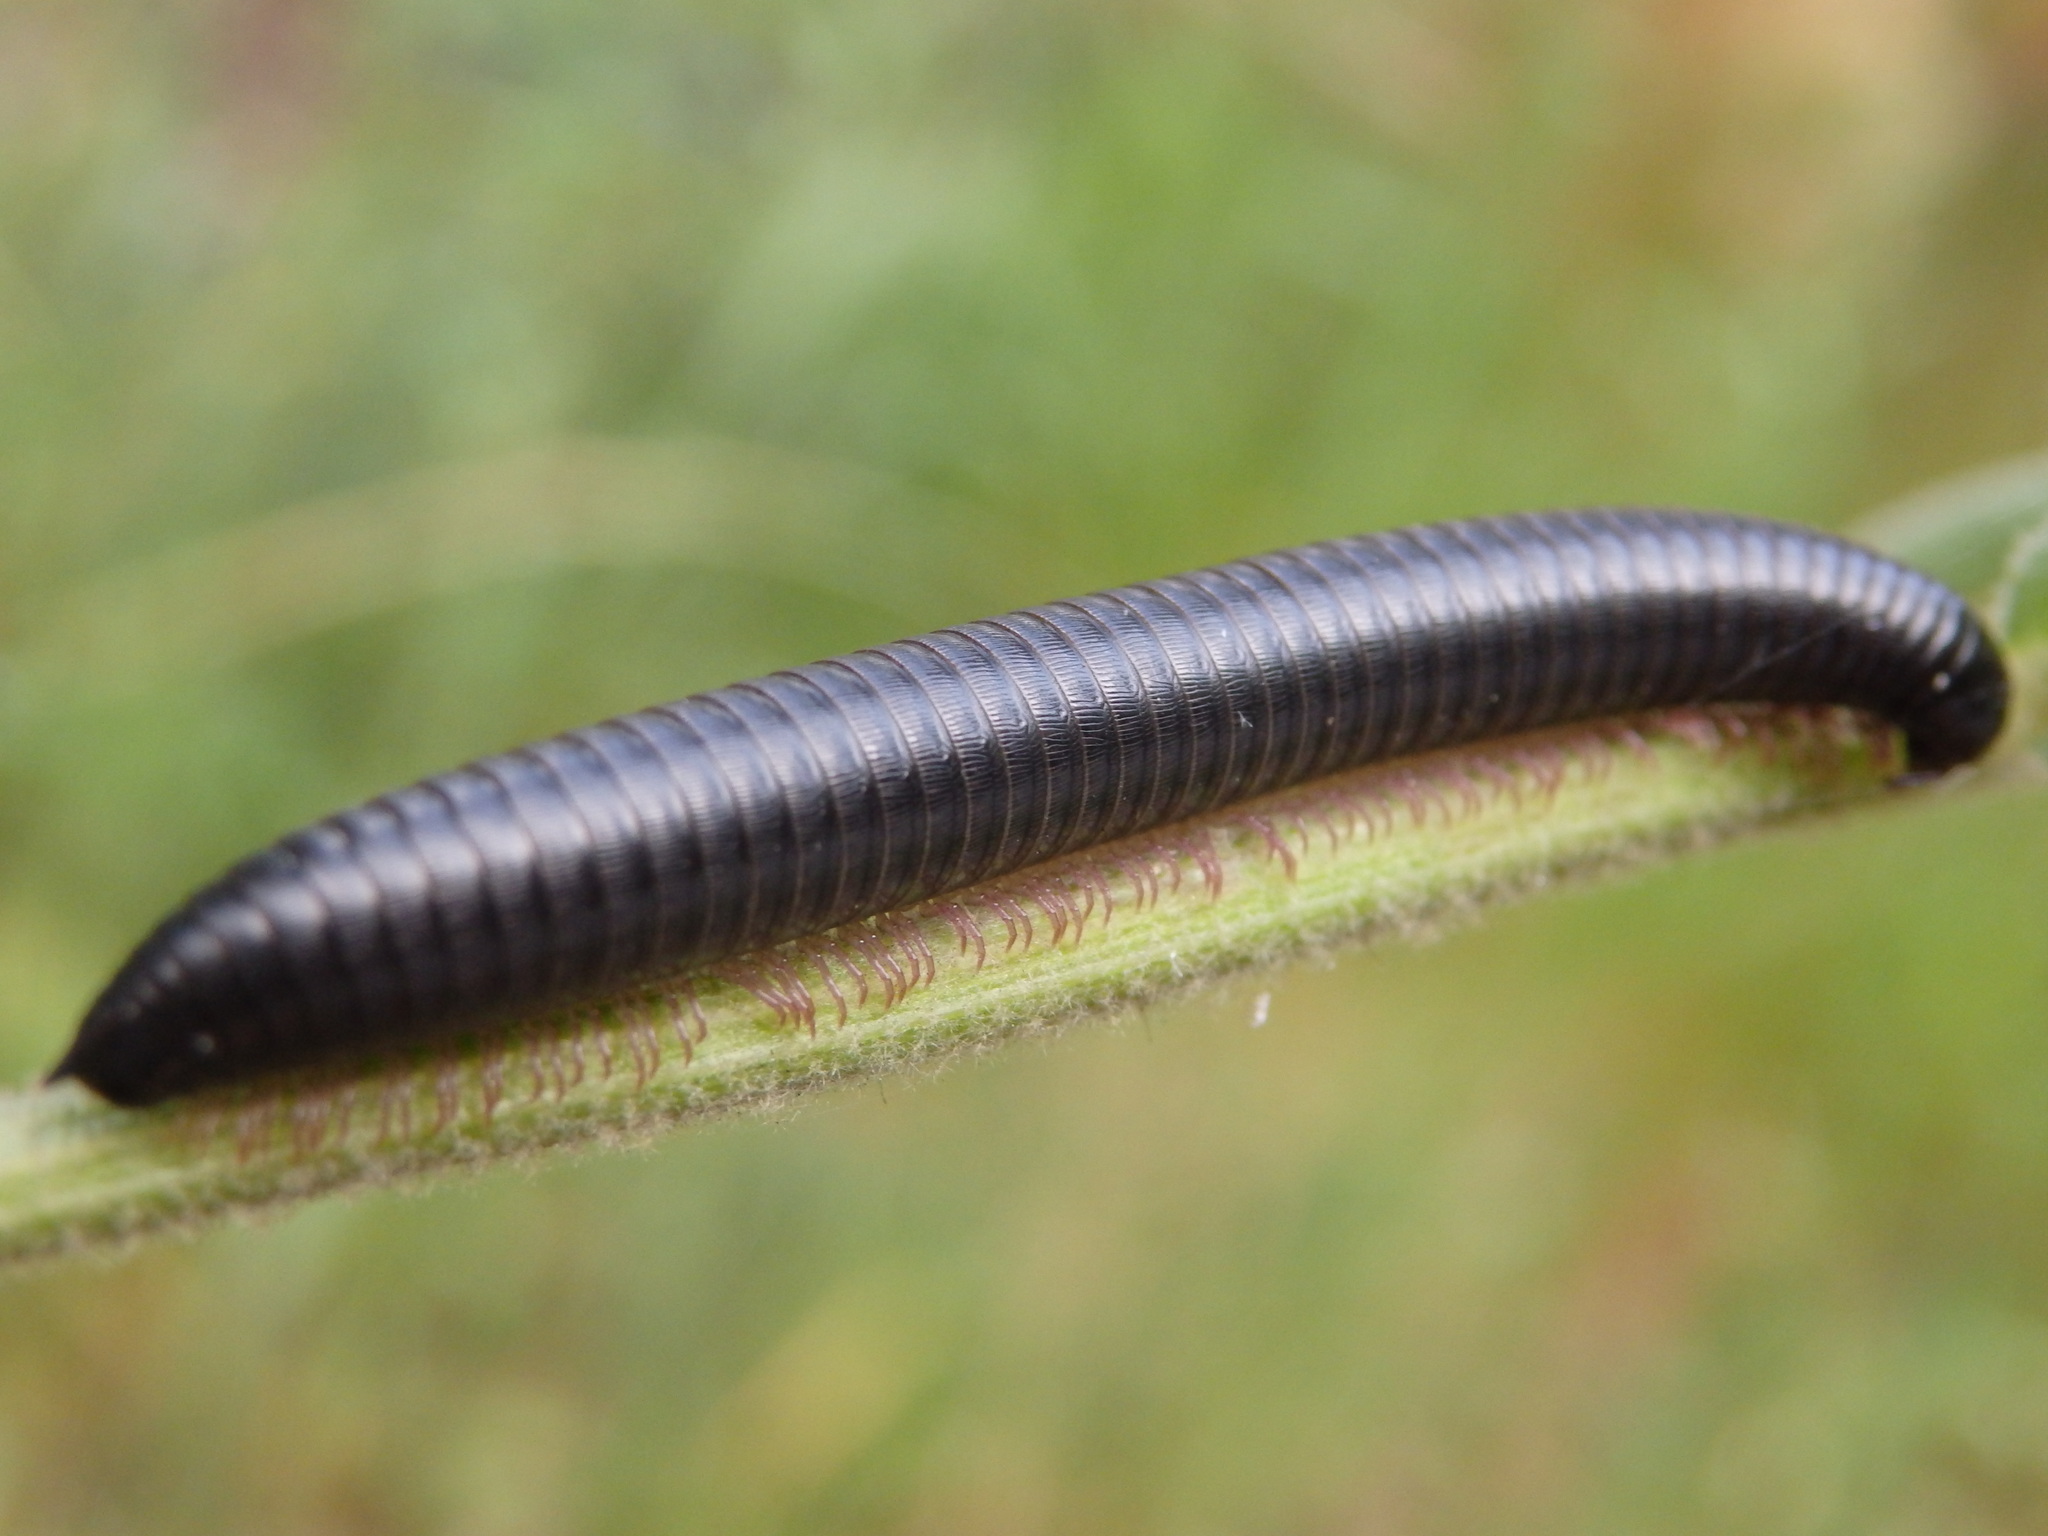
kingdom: Animalia
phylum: Arthropoda
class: Diplopoda
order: Julida
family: Julidae
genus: Ommatoiulus
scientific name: Ommatoiulus moreleti
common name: Portuguese millipede
